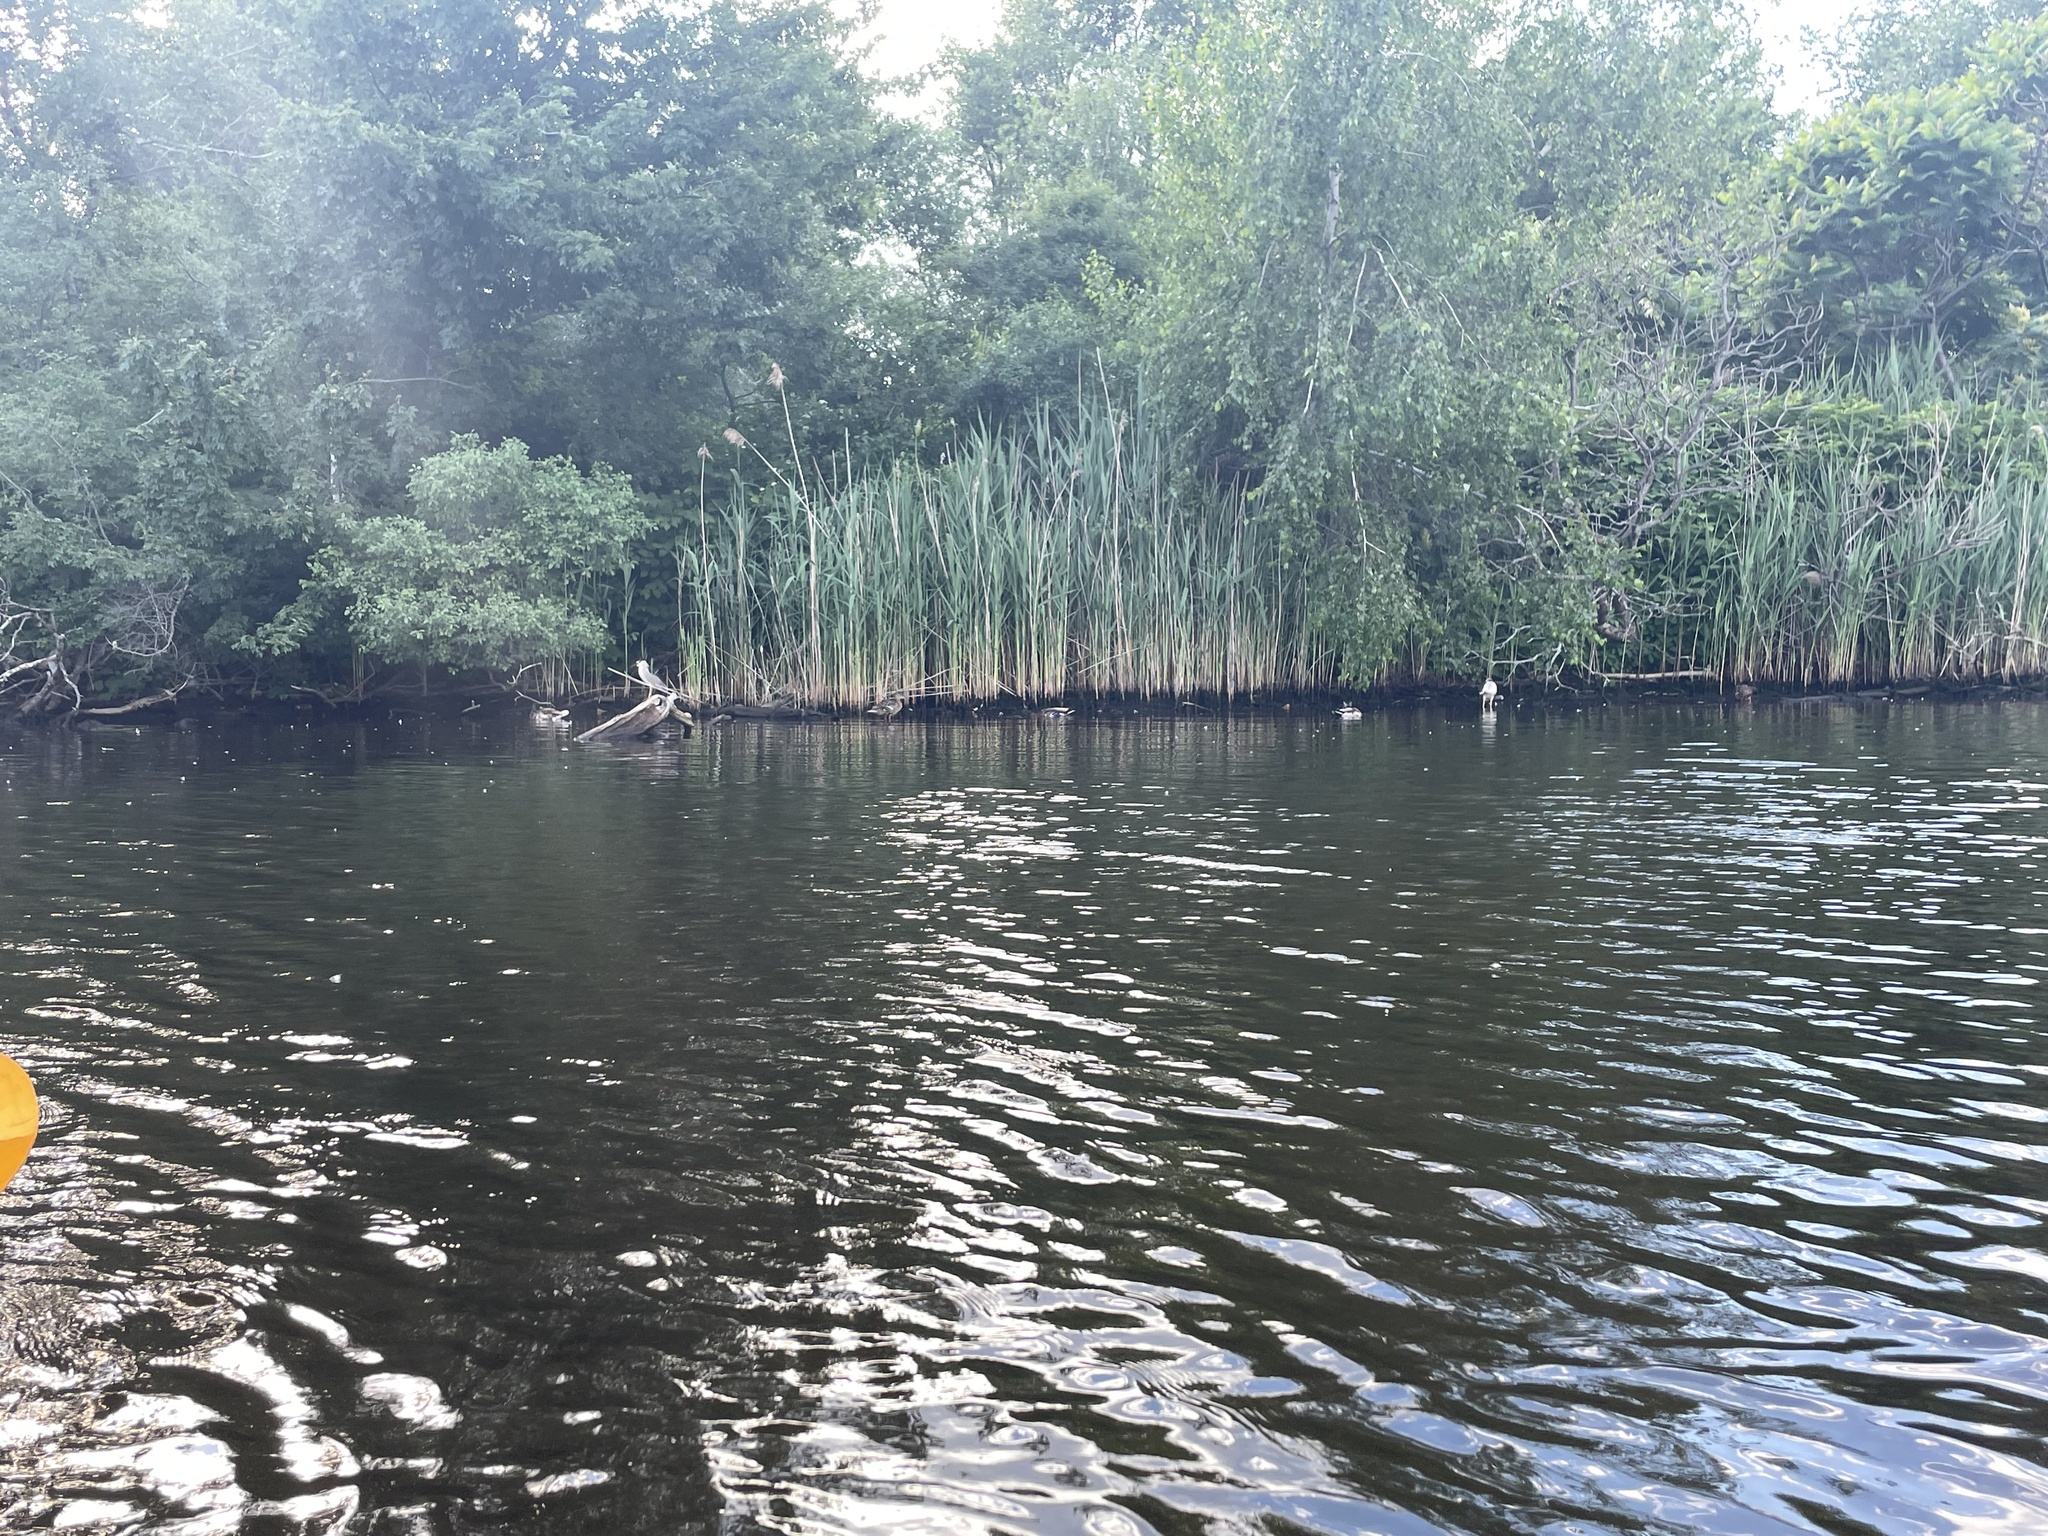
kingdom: Animalia
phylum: Chordata
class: Aves
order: Pelecaniformes
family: Ardeidae
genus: Nycticorax
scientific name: Nycticorax nycticorax
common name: Black-crowned night heron
